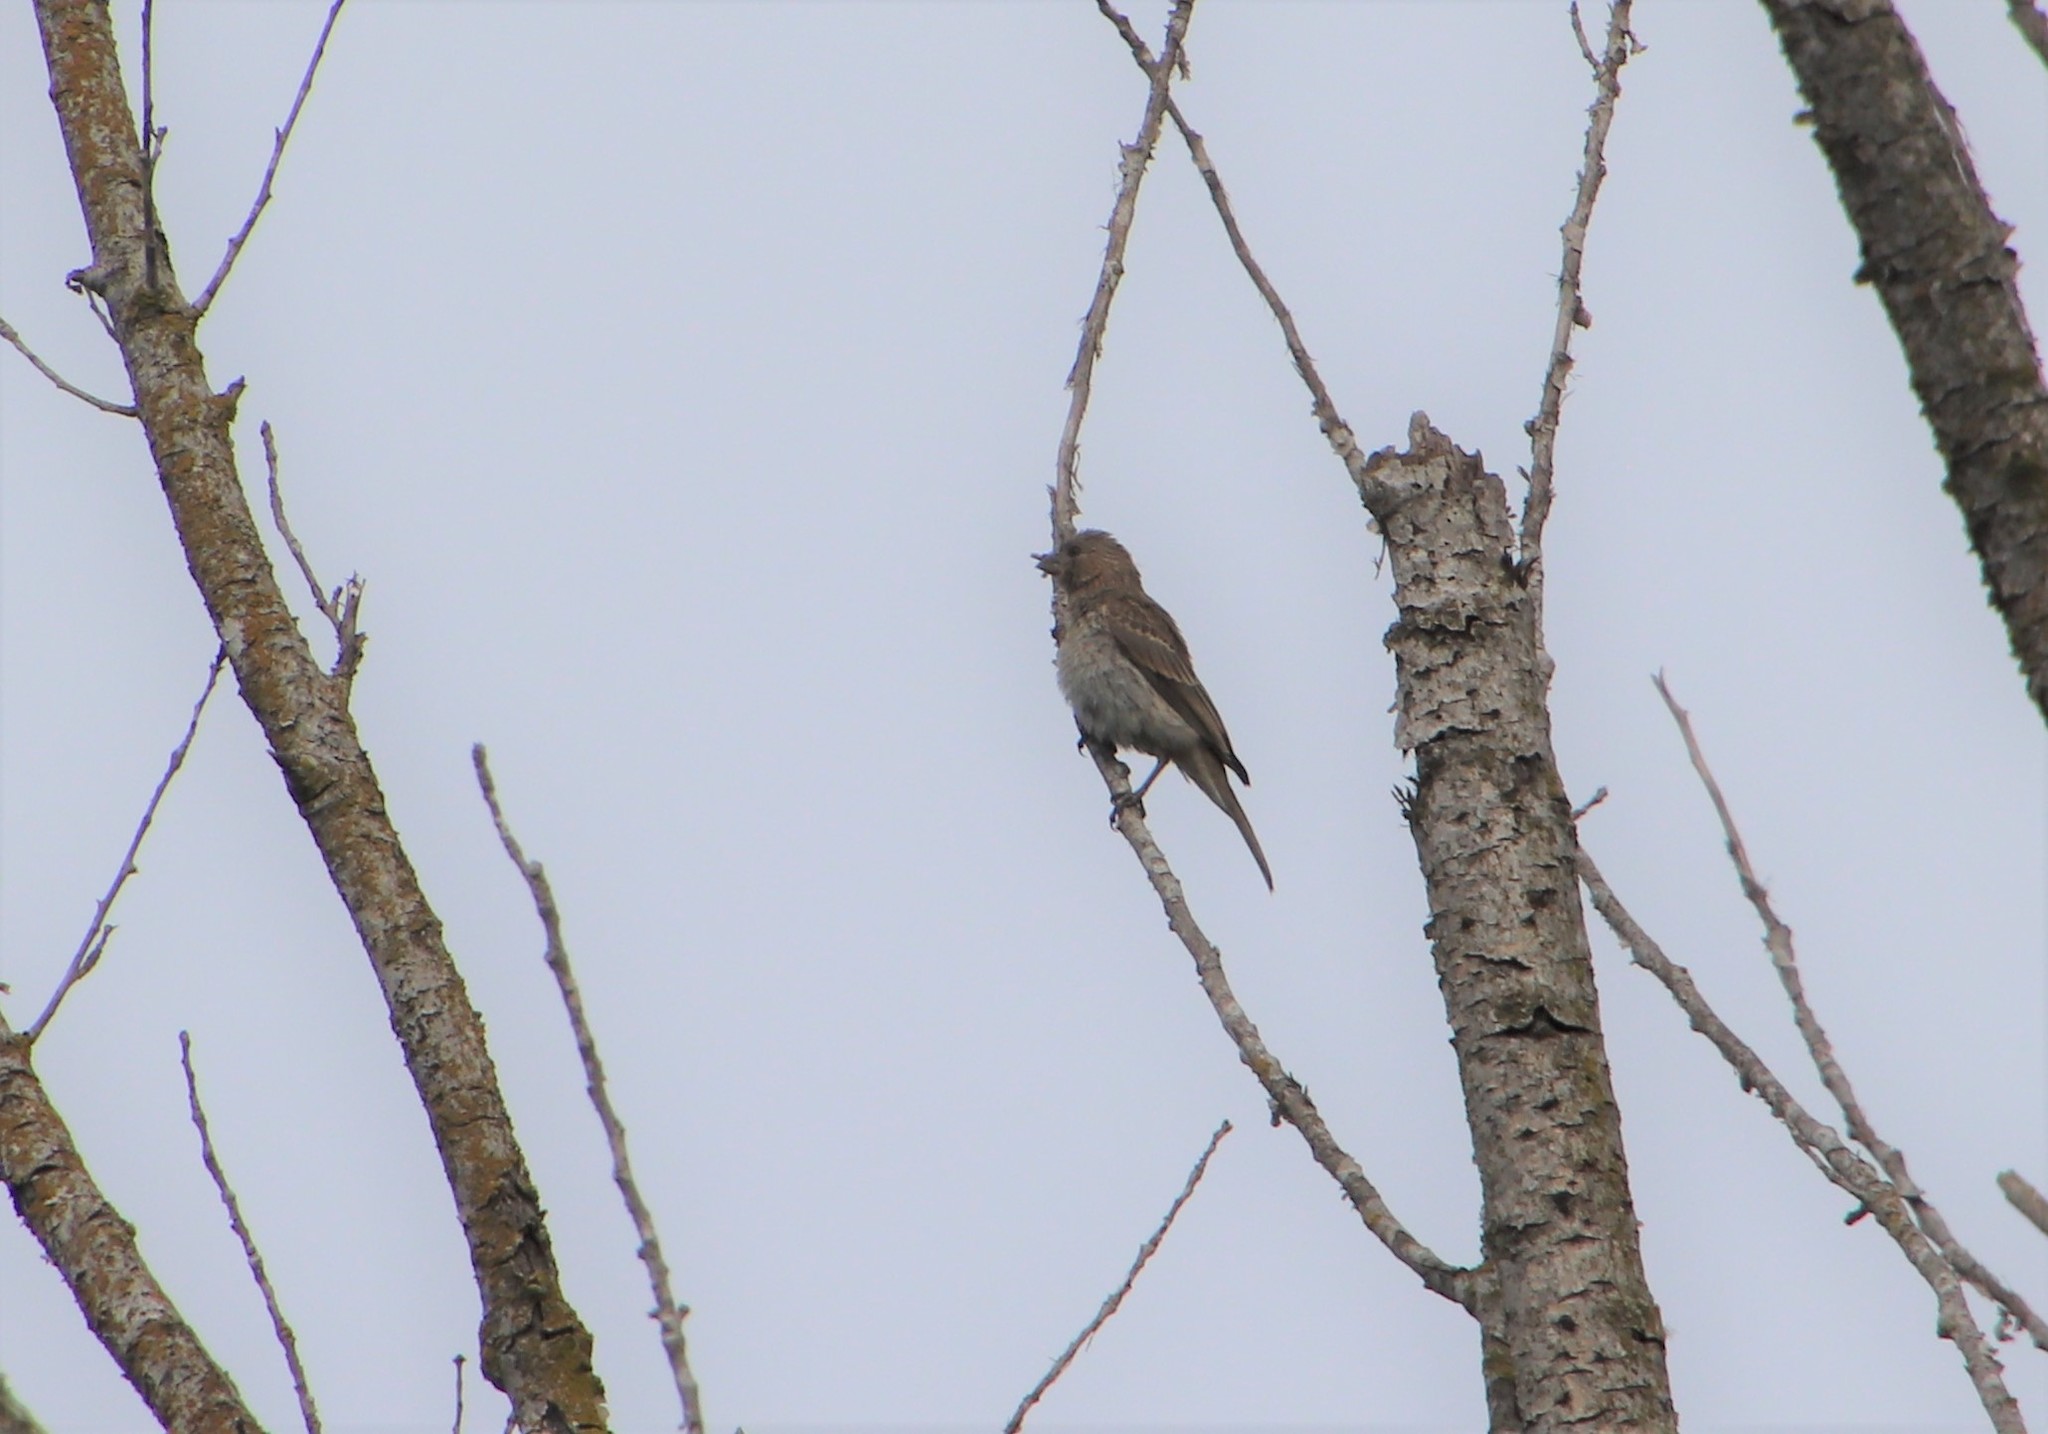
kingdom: Animalia
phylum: Chordata
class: Aves
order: Passeriformes
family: Fringillidae
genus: Haemorhous
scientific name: Haemorhous mexicanus
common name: House finch
